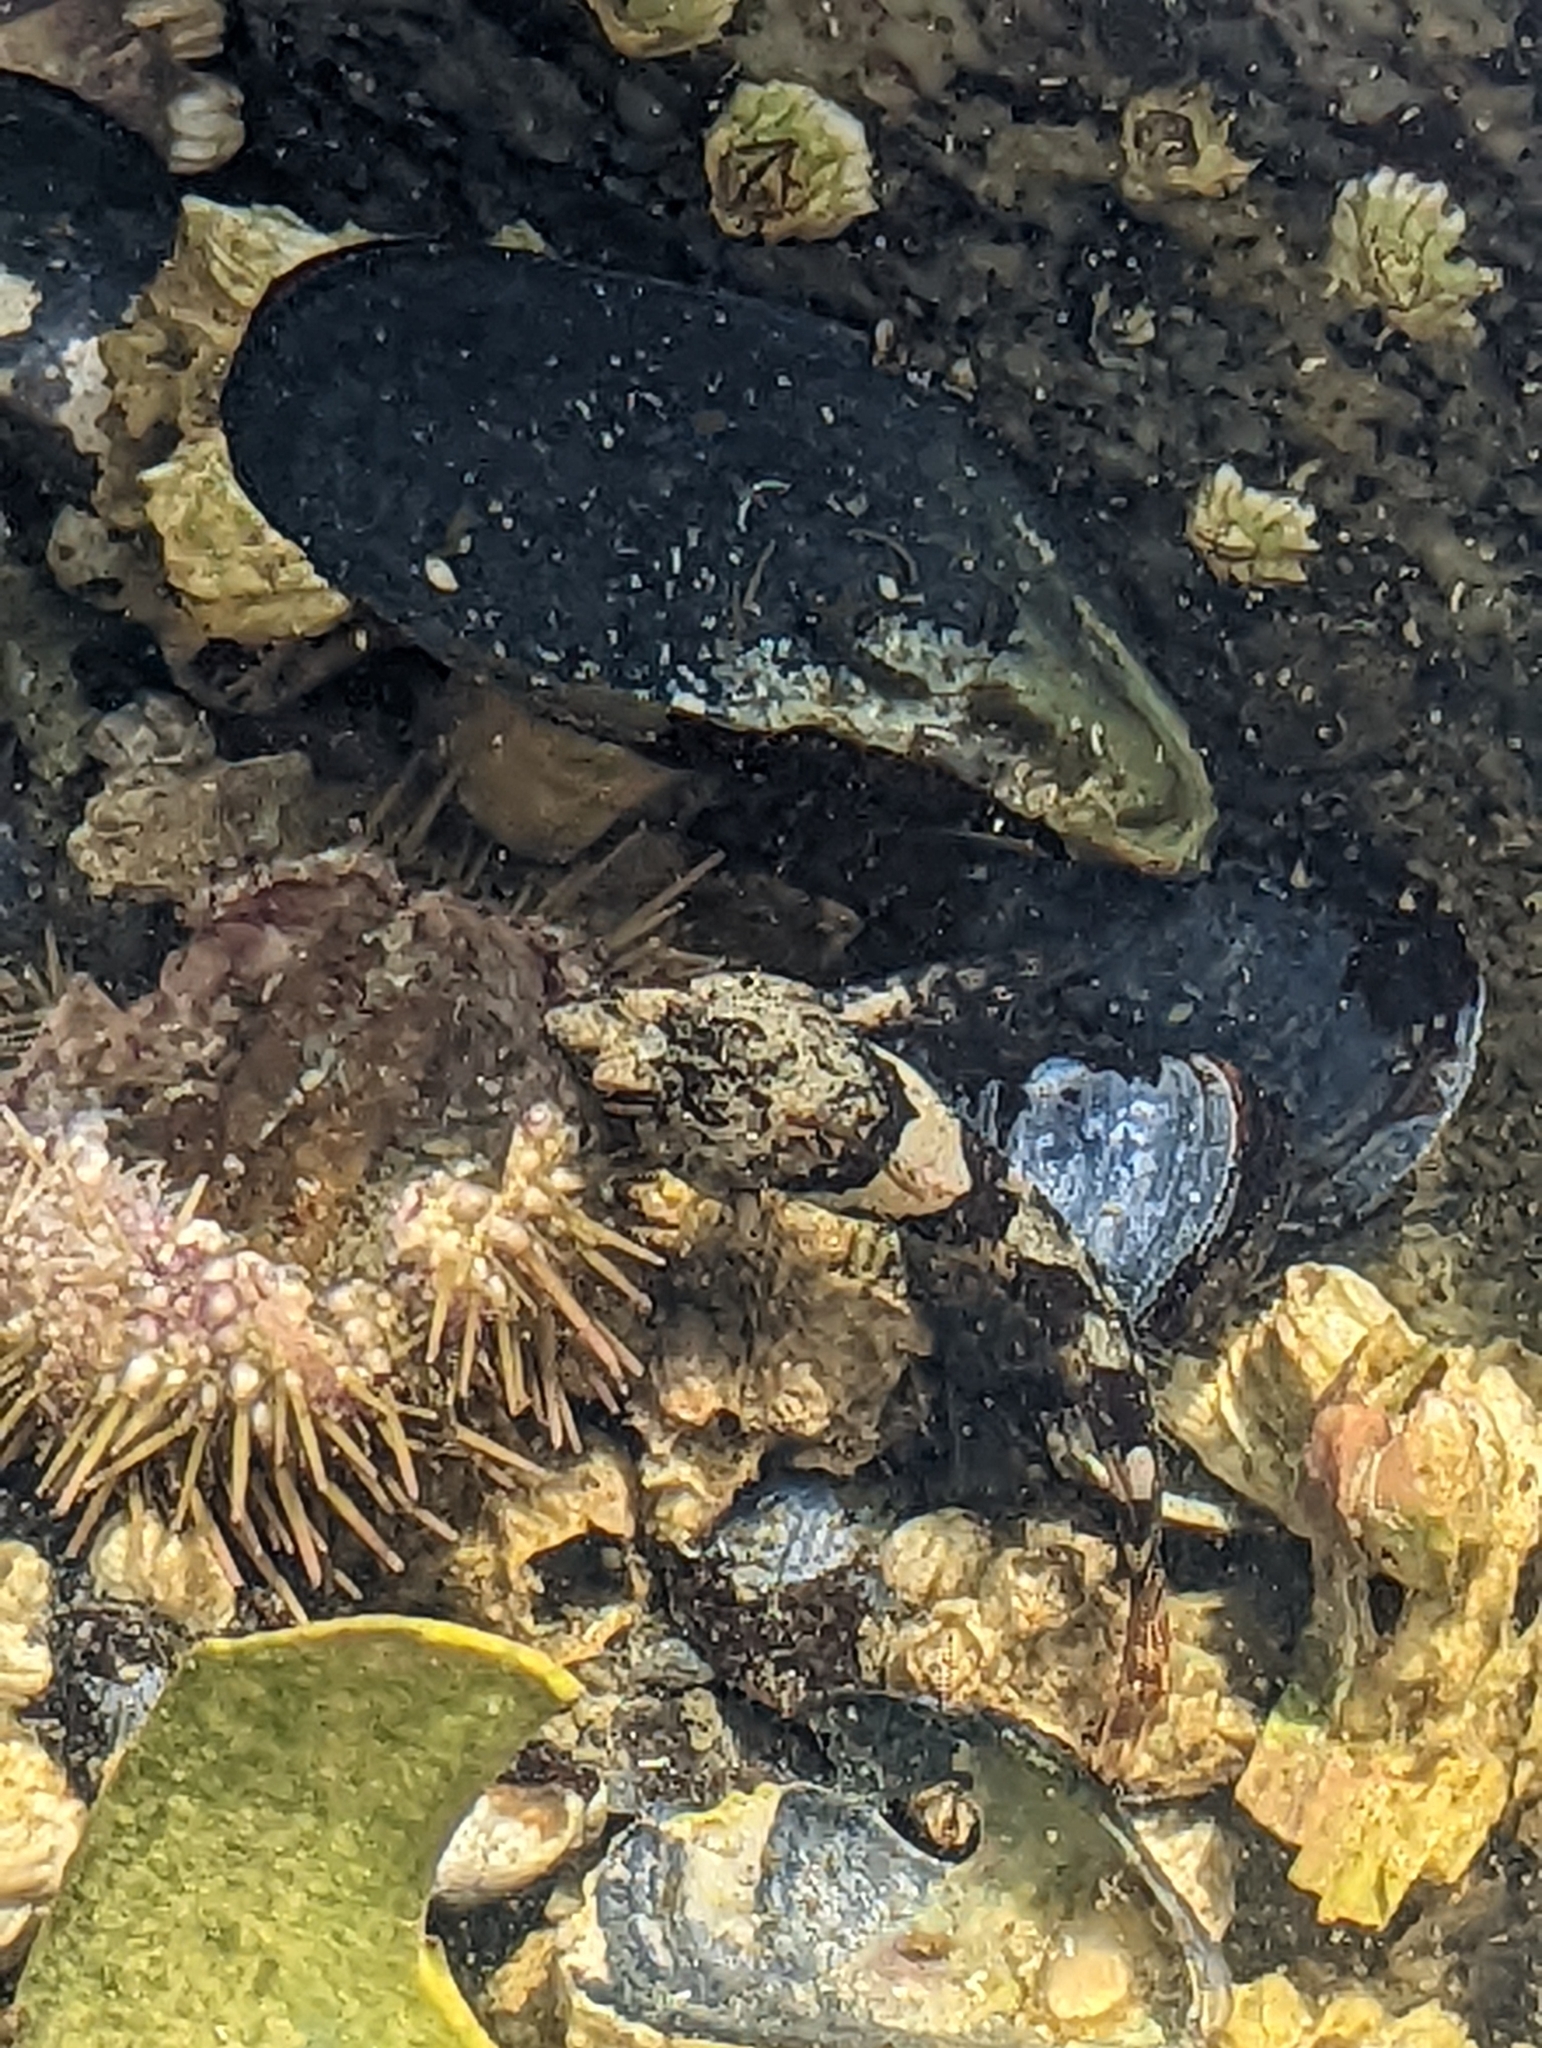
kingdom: Animalia
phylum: Chordata
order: Scorpaeniformes
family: Cottidae
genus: Oligocottus
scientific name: Oligocottus maculosus
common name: Tidepool sculpin
